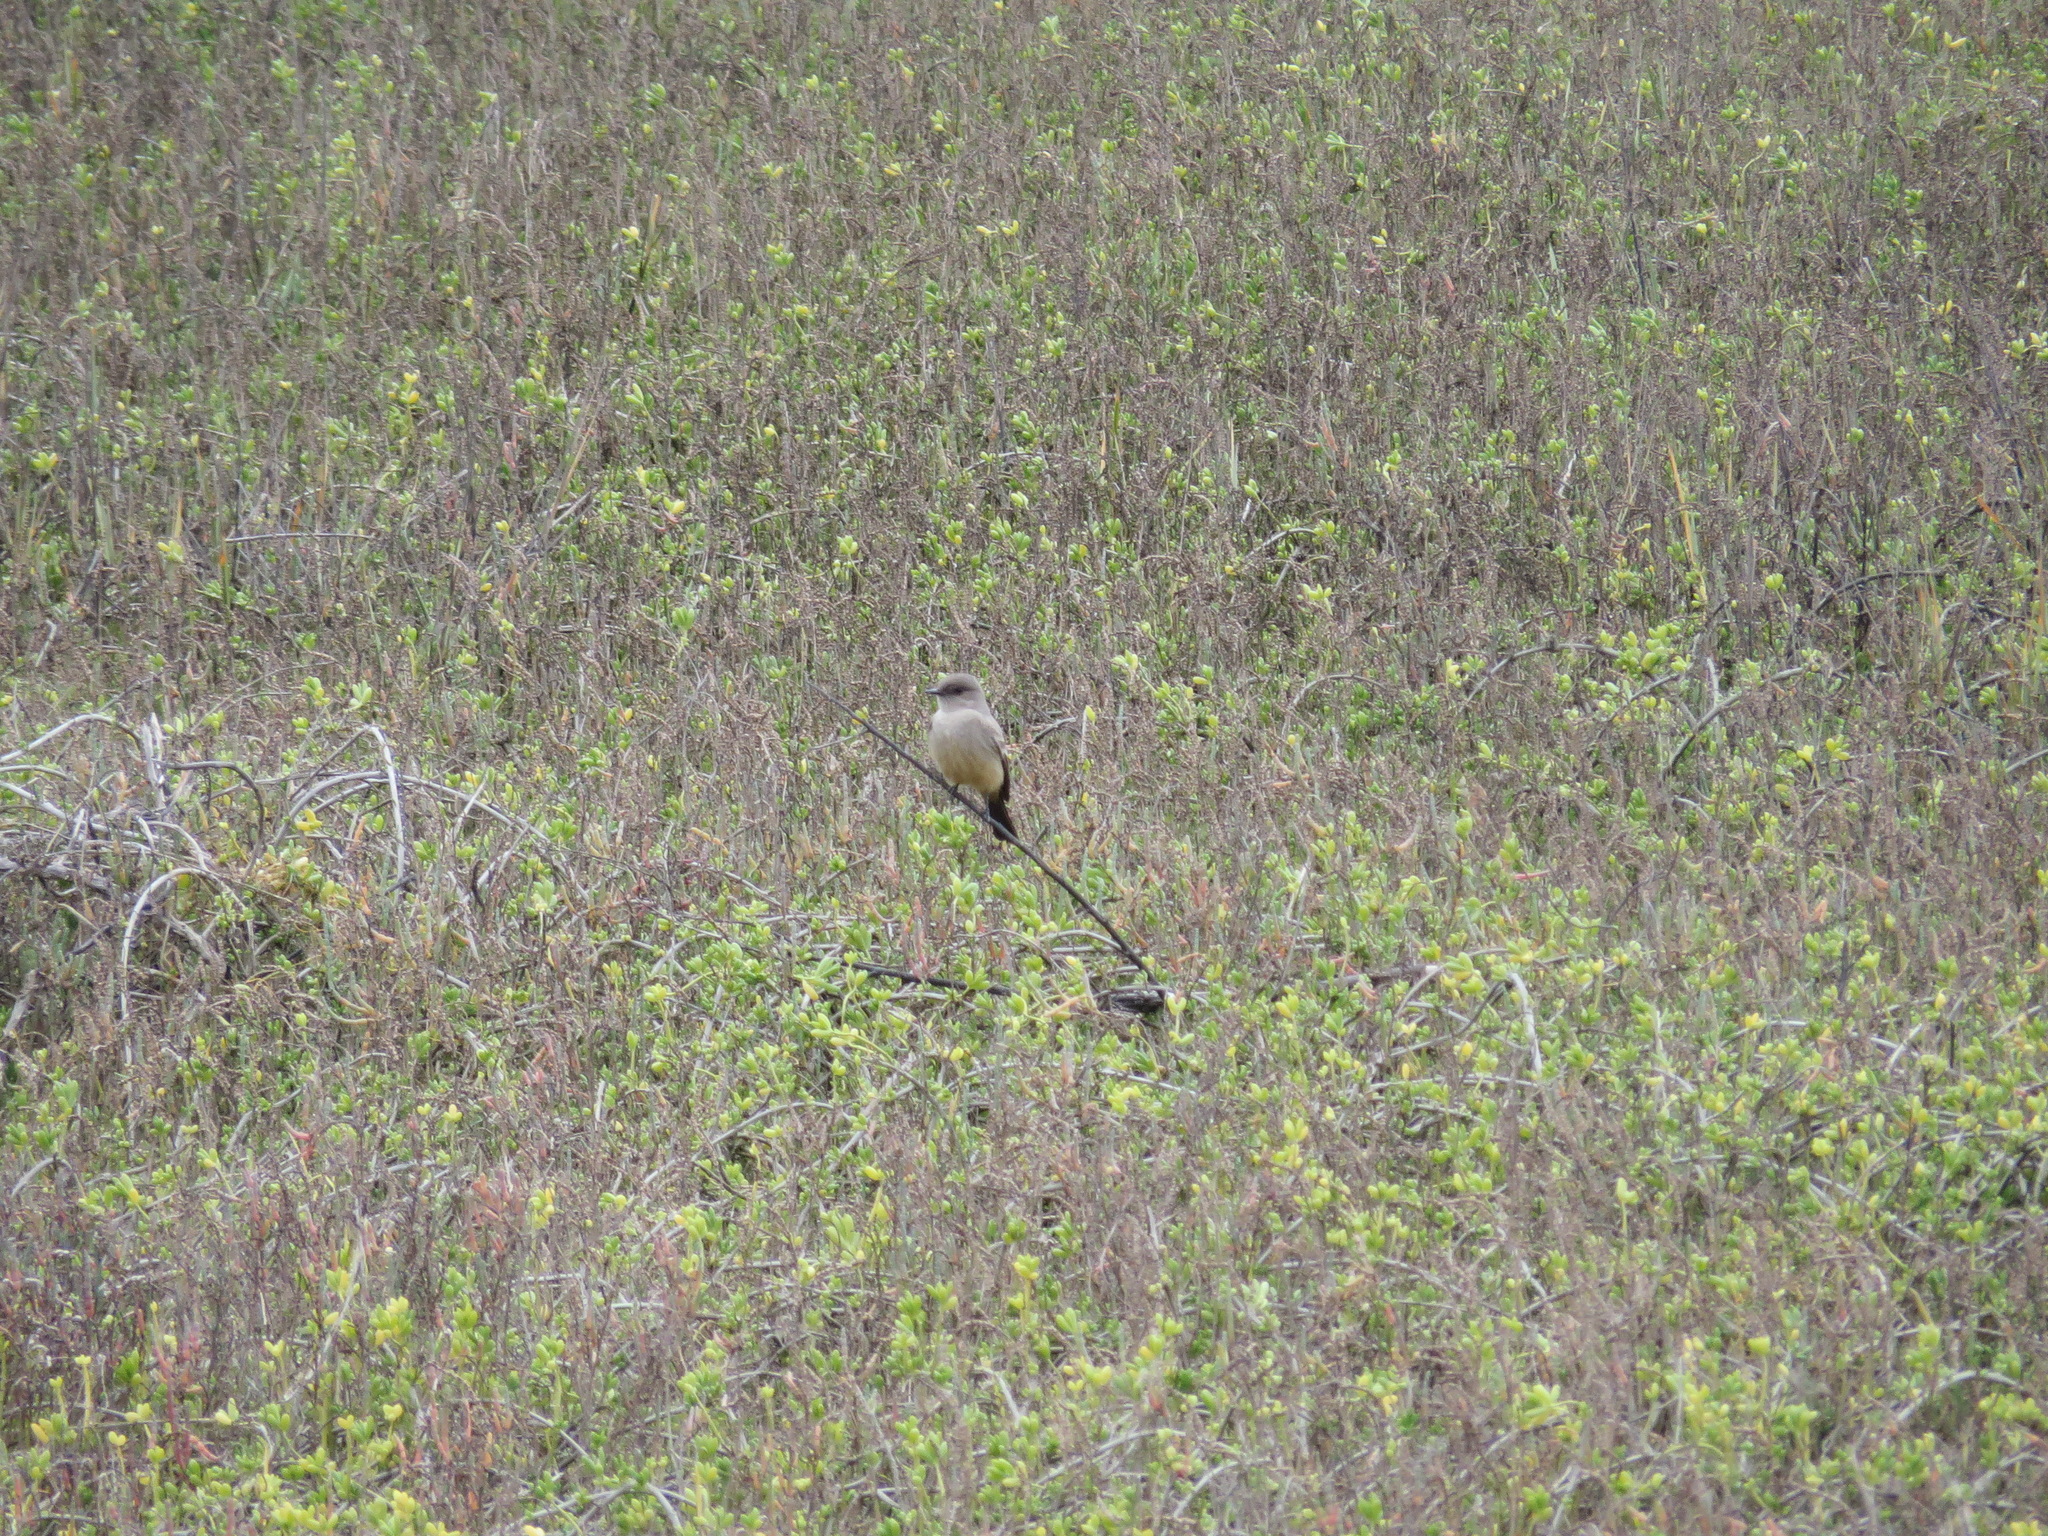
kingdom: Animalia
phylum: Chordata
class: Aves
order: Passeriformes
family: Tyrannidae
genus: Sayornis
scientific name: Sayornis saya
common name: Say's phoebe
